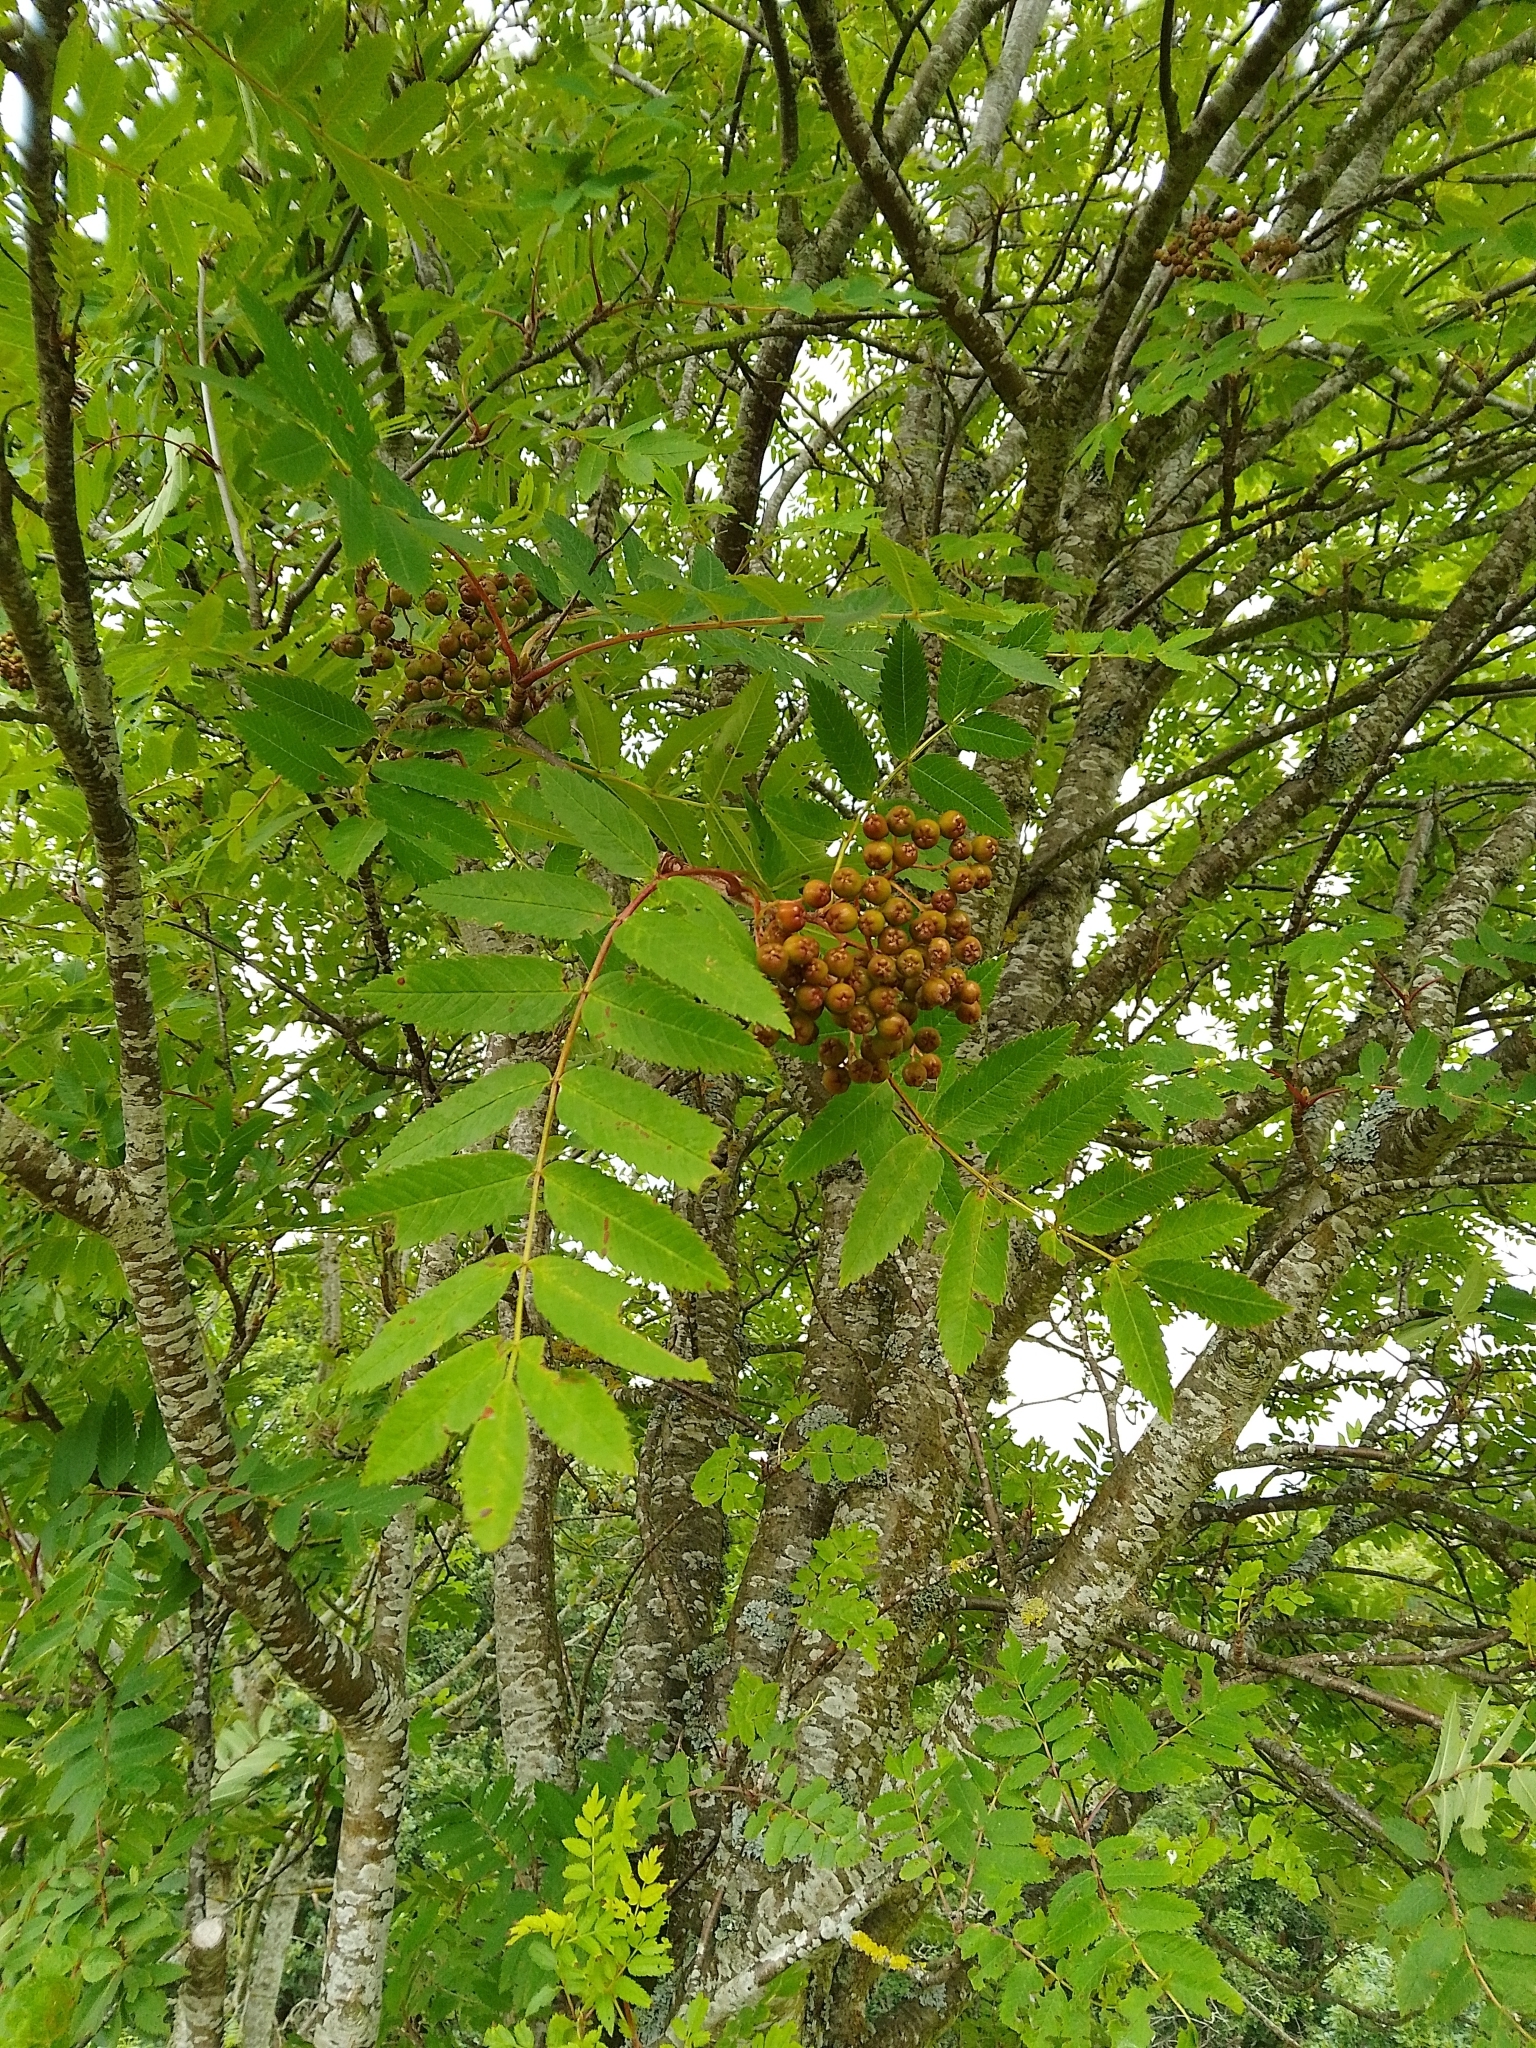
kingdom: Plantae
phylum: Tracheophyta
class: Magnoliopsida
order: Rosales
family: Rosaceae
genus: Sorbus
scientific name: Sorbus aucuparia
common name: Rowan
